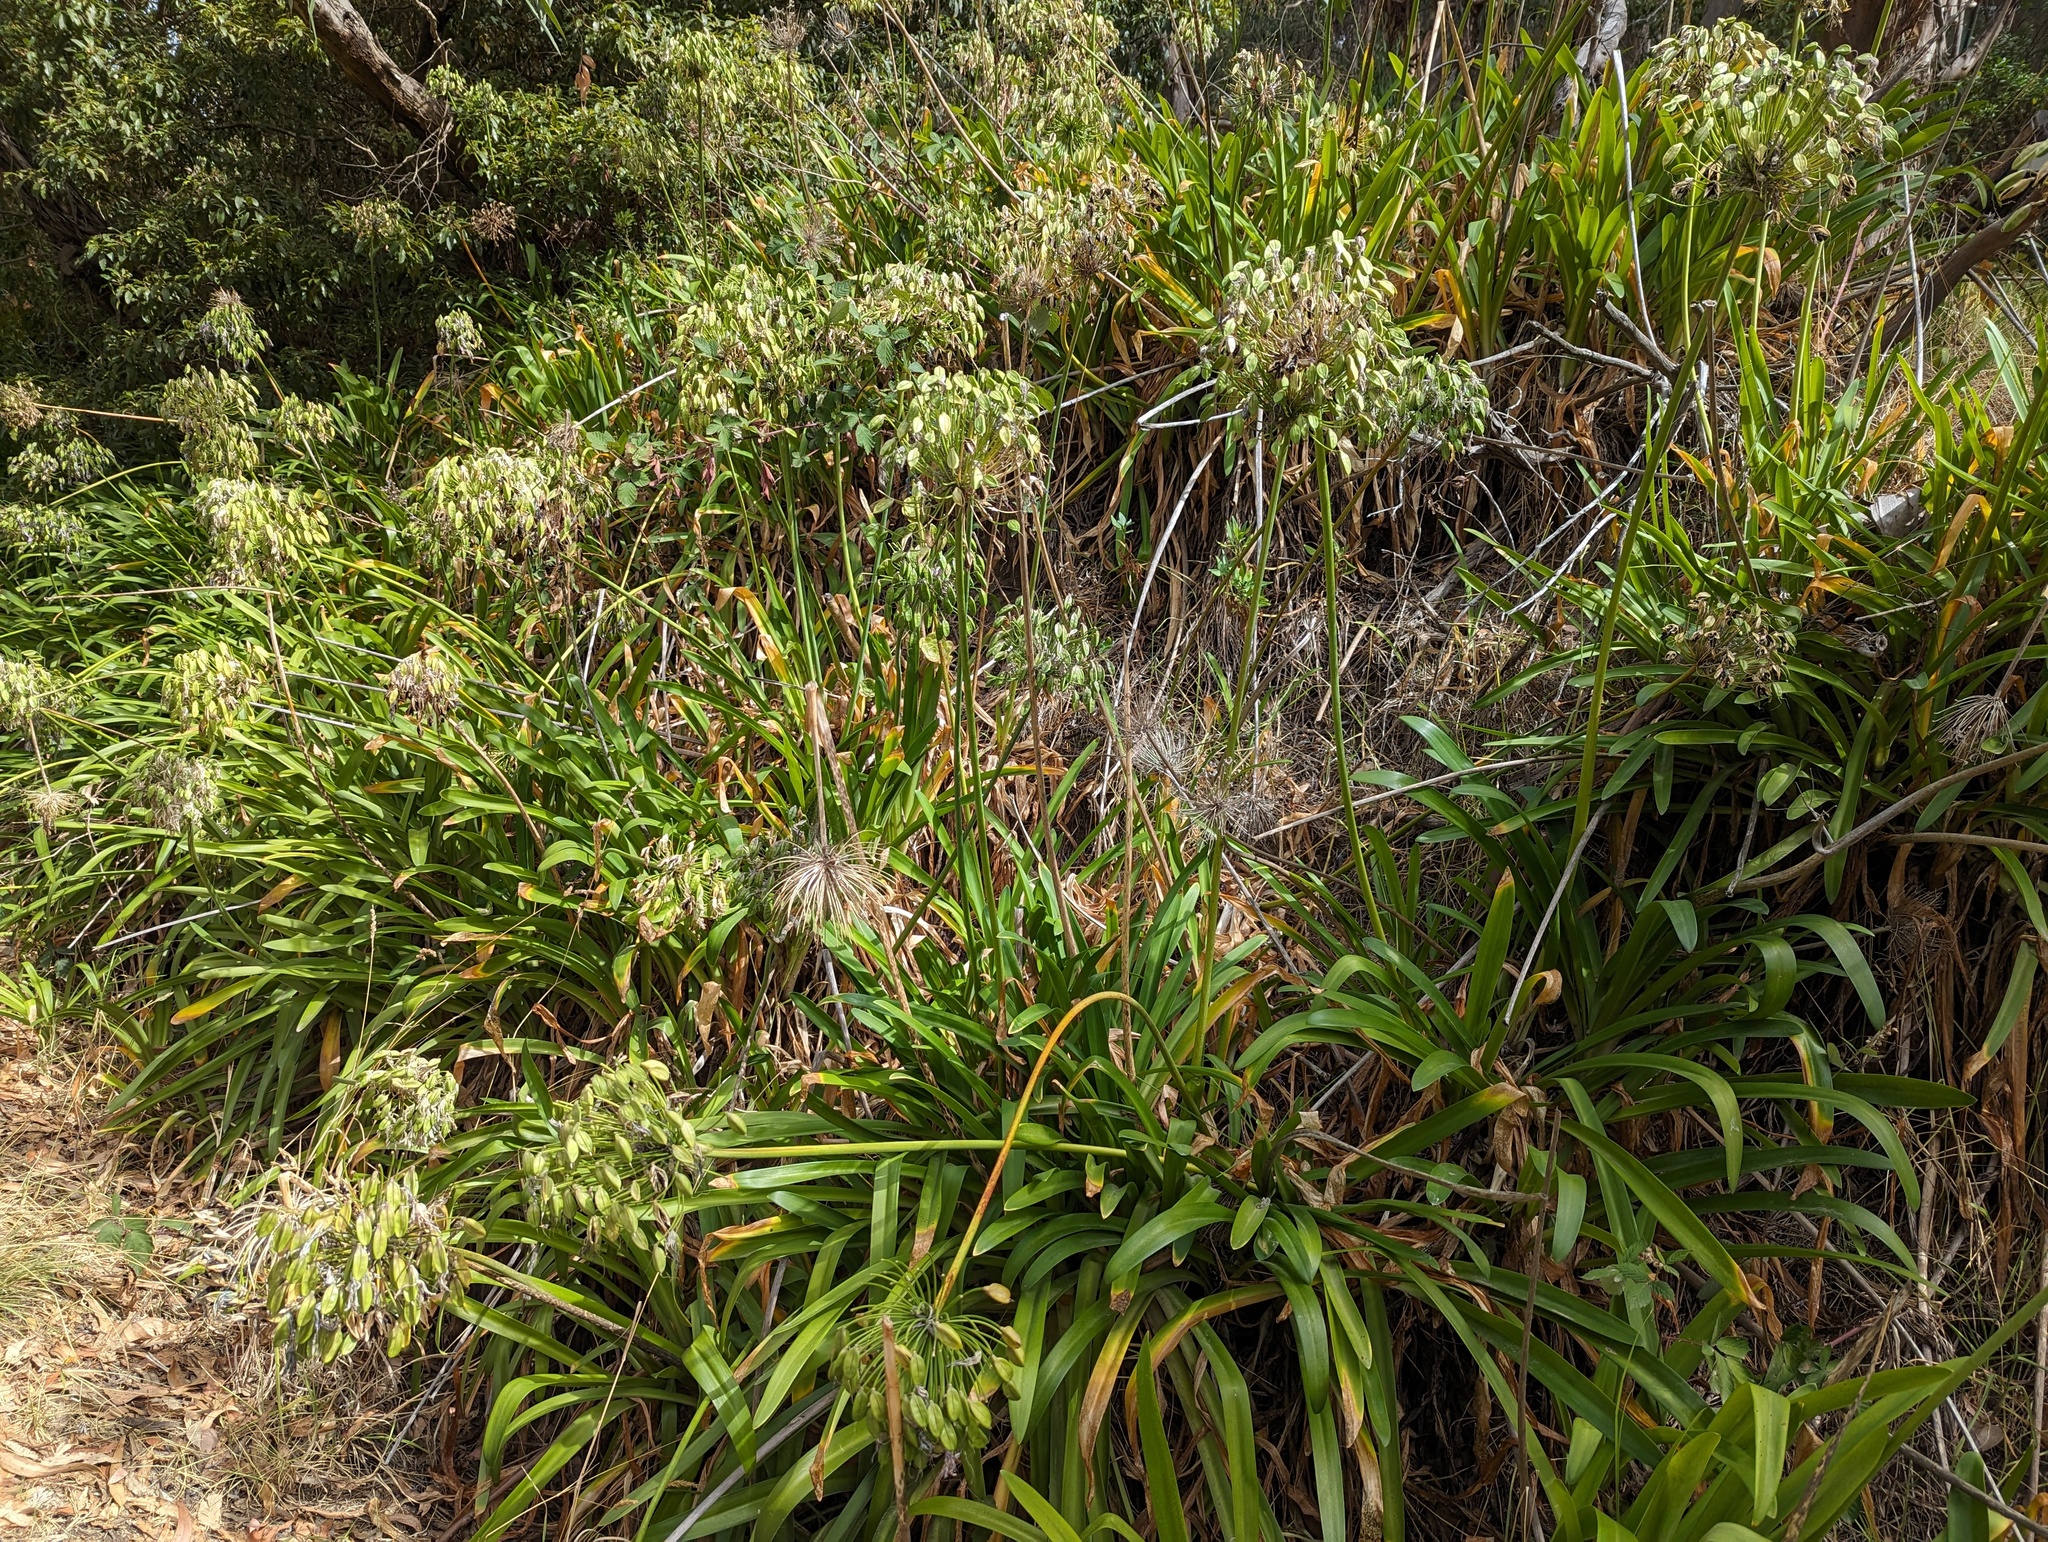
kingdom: Plantae
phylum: Tracheophyta
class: Liliopsida
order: Asparagales
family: Amaryllidaceae
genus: Agapanthus
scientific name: Agapanthus praecox
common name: African-lily
